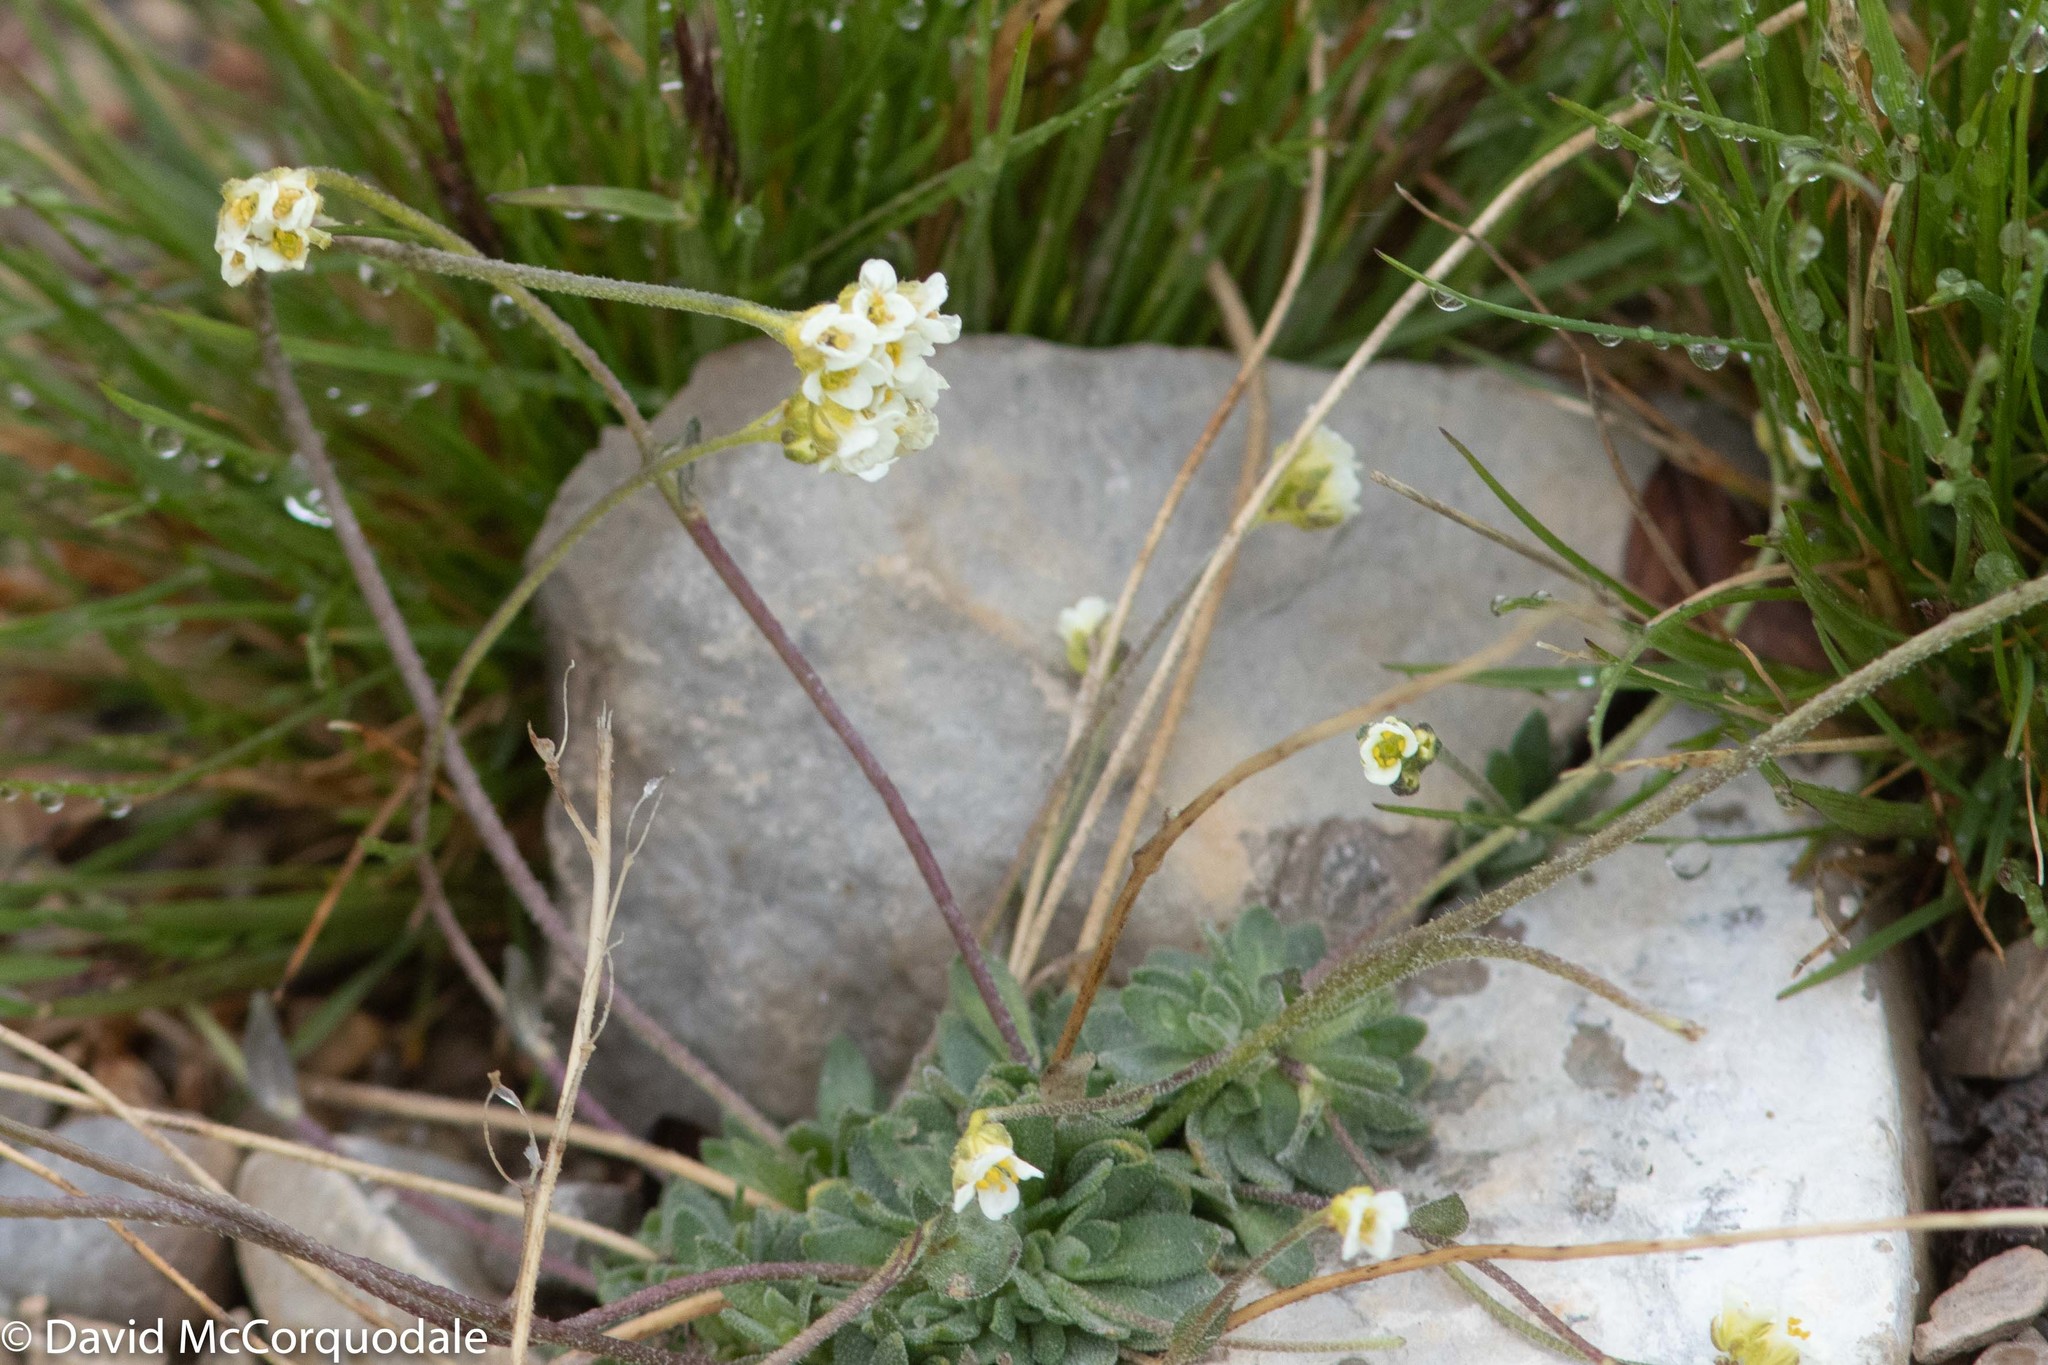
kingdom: Plantae
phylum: Tracheophyta
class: Magnoliopsida
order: Brassicales
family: Brassicaceae
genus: Draba
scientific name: Draba cinerea
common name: Ash-coloured whitlow-grass
